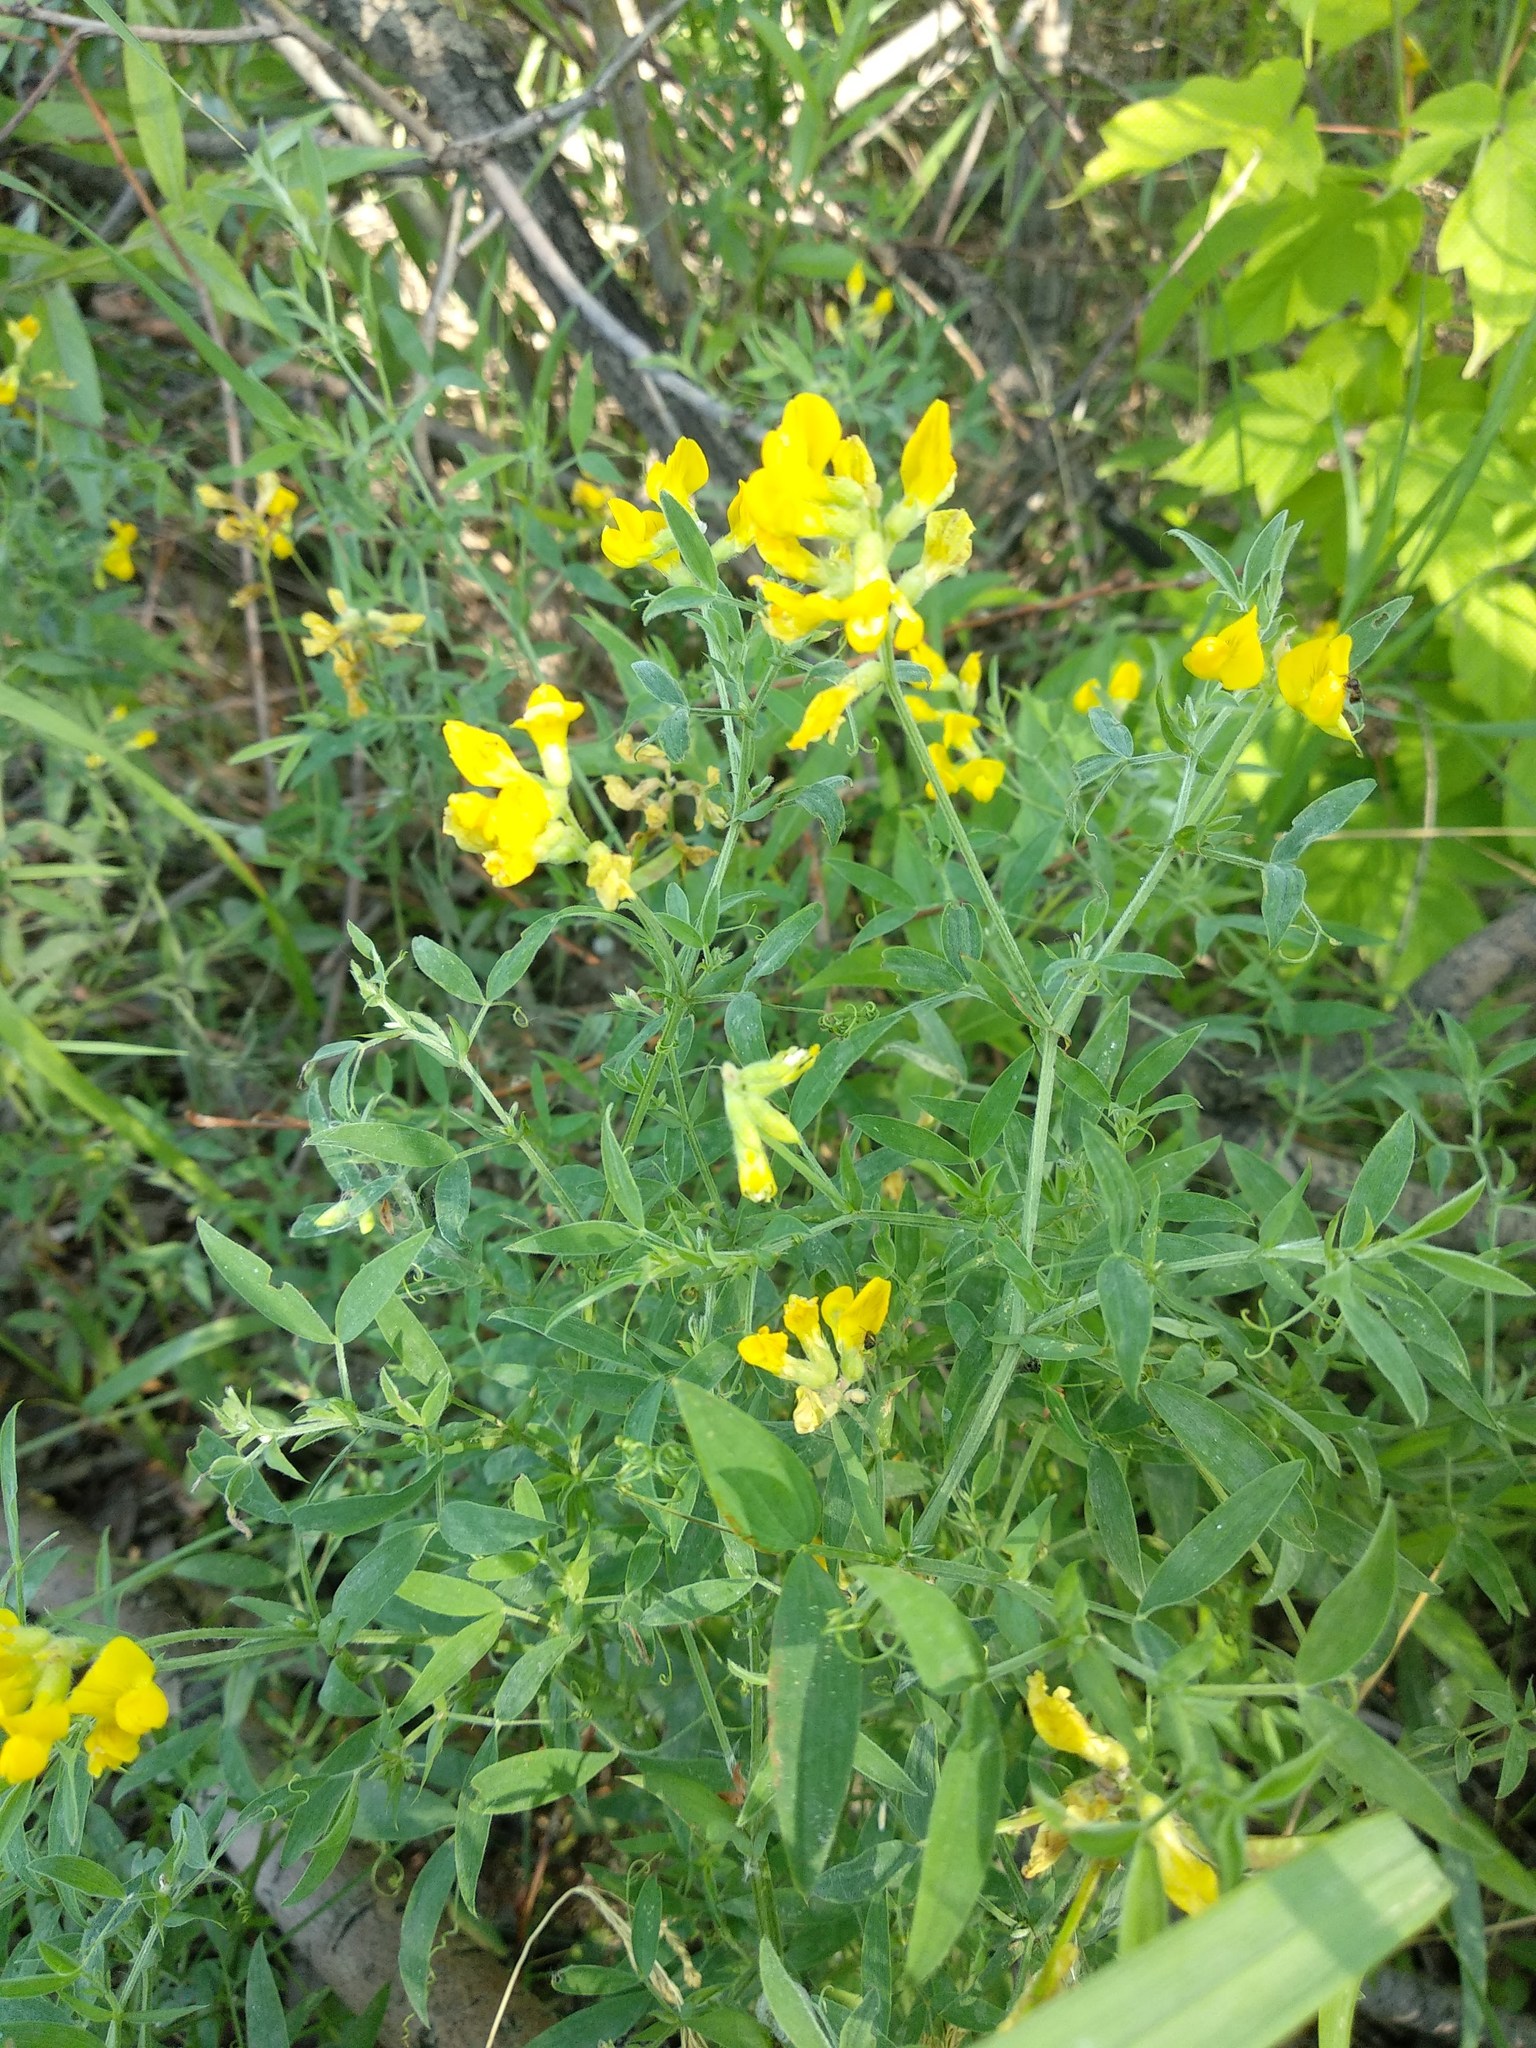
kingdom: Plantae
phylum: Tracheophyta
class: Magnoliopsida
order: Fabales
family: Fabaceae
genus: Lathyrus
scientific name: Lathyrus pratensis
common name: Meadow vetchling
